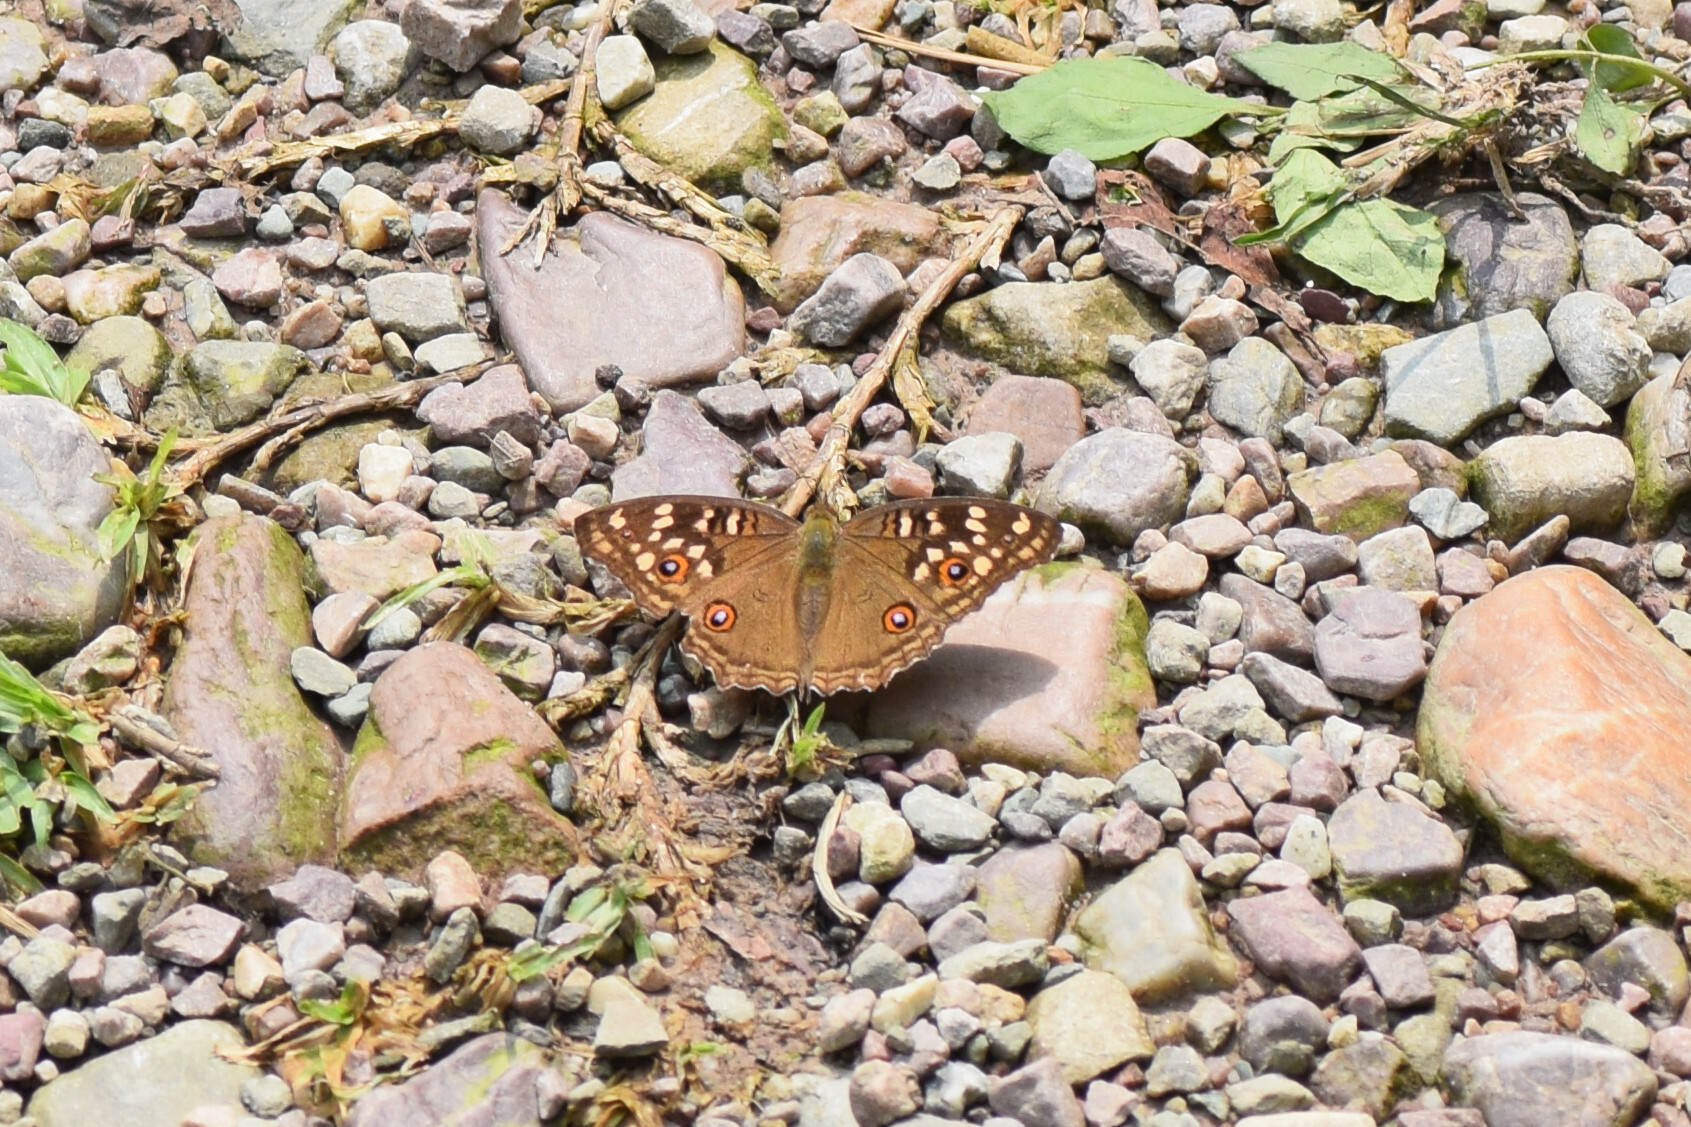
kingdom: Animalia
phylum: Arthropoda
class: Insecta
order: Lepidoptera
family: Nymphalidae
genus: Junonia
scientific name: Junonia lemonias
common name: Lemon pansy
